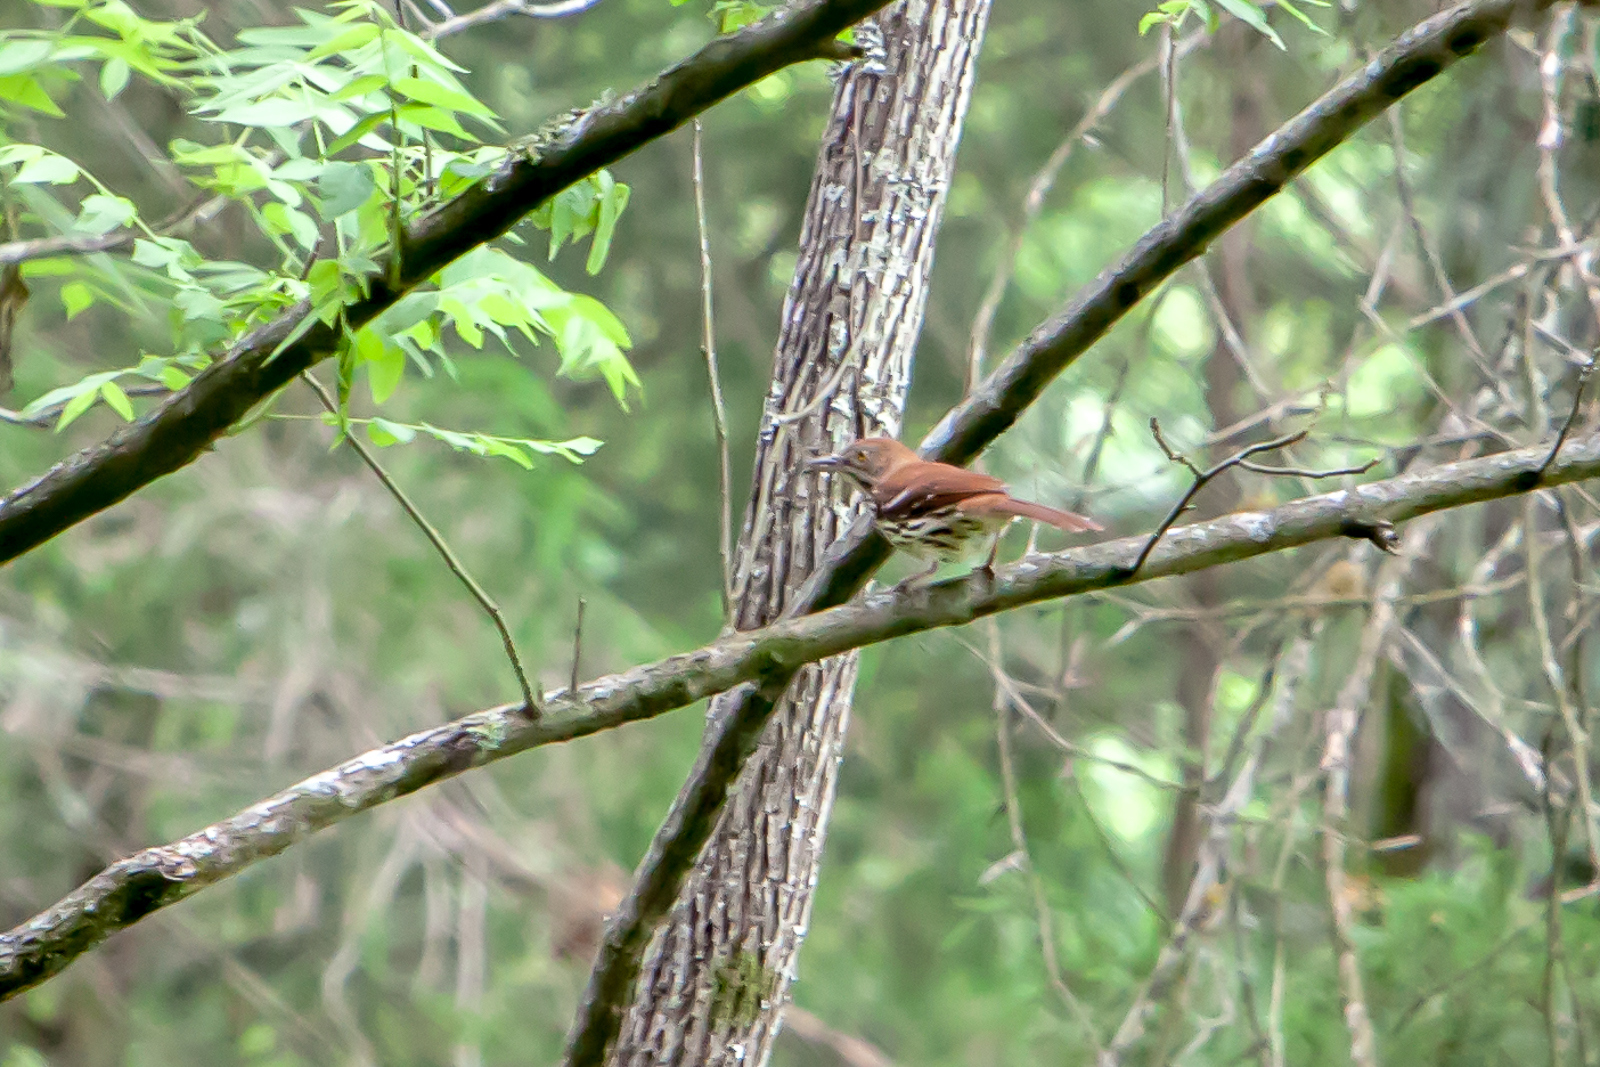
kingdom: Animalia
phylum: Chordata
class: Aves
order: Passeriformes
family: Mimidae
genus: Toxostoma
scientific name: Toxostoma rufum
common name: Brown thrasher
